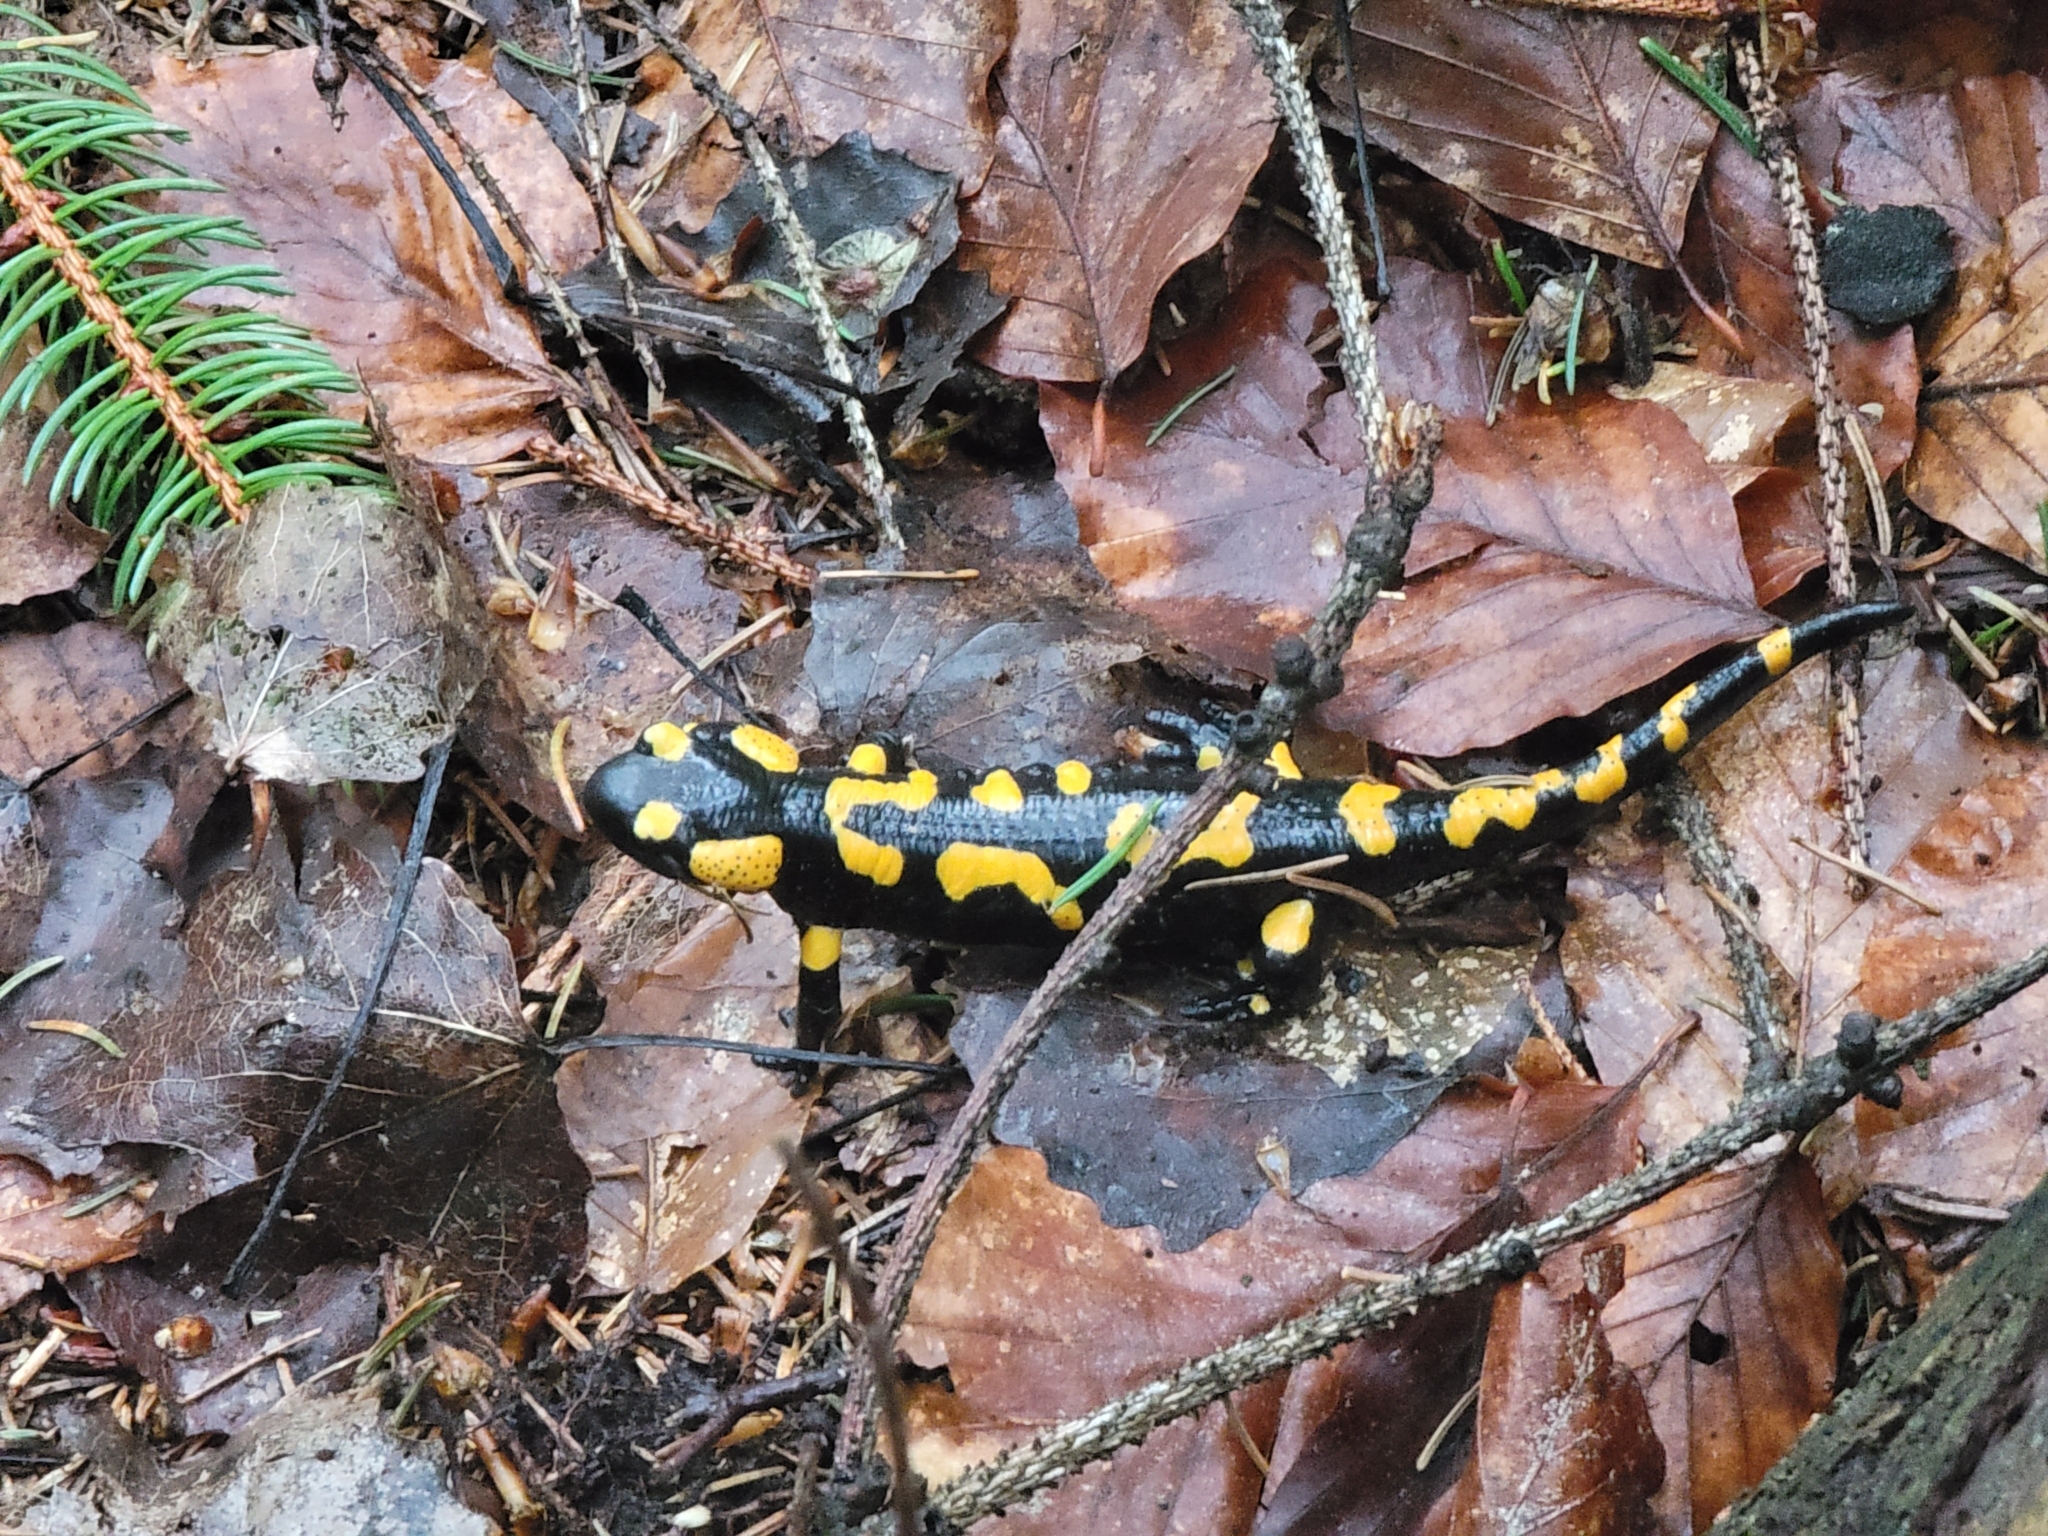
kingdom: Animalia
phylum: Chordata
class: Amphibia
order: Caudata
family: Salamandridae
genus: Salamandra
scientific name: Salamandra salamandra
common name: Fire salamander
